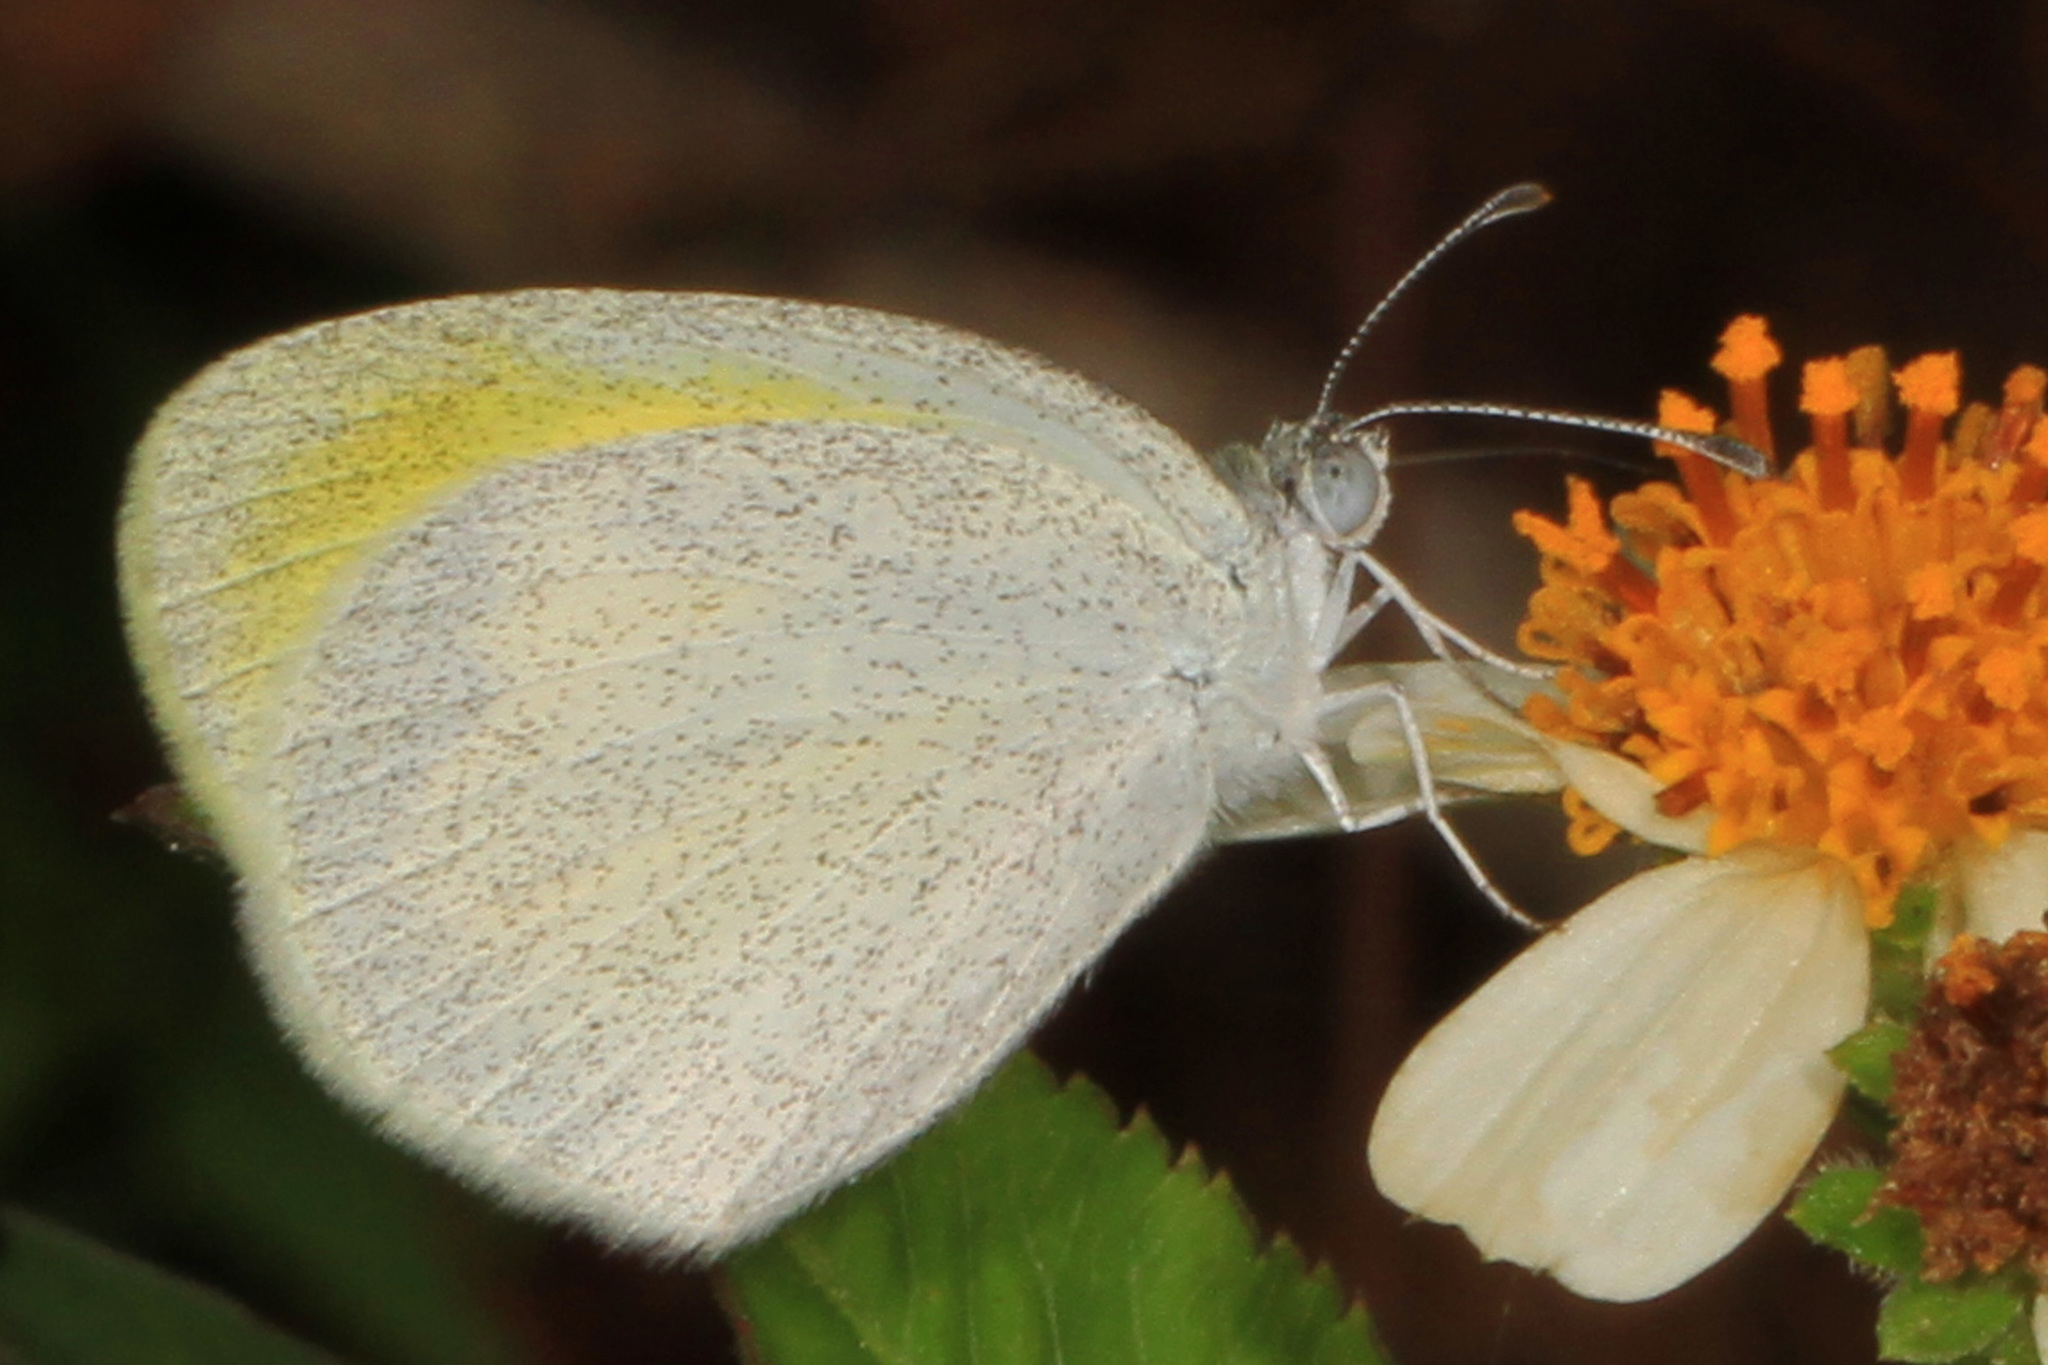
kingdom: Animalia
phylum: Arthropoda
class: Insecta
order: Lepidoptera
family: Pieridae
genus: Eurema
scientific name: Eurema daira
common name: Barred sulphur
